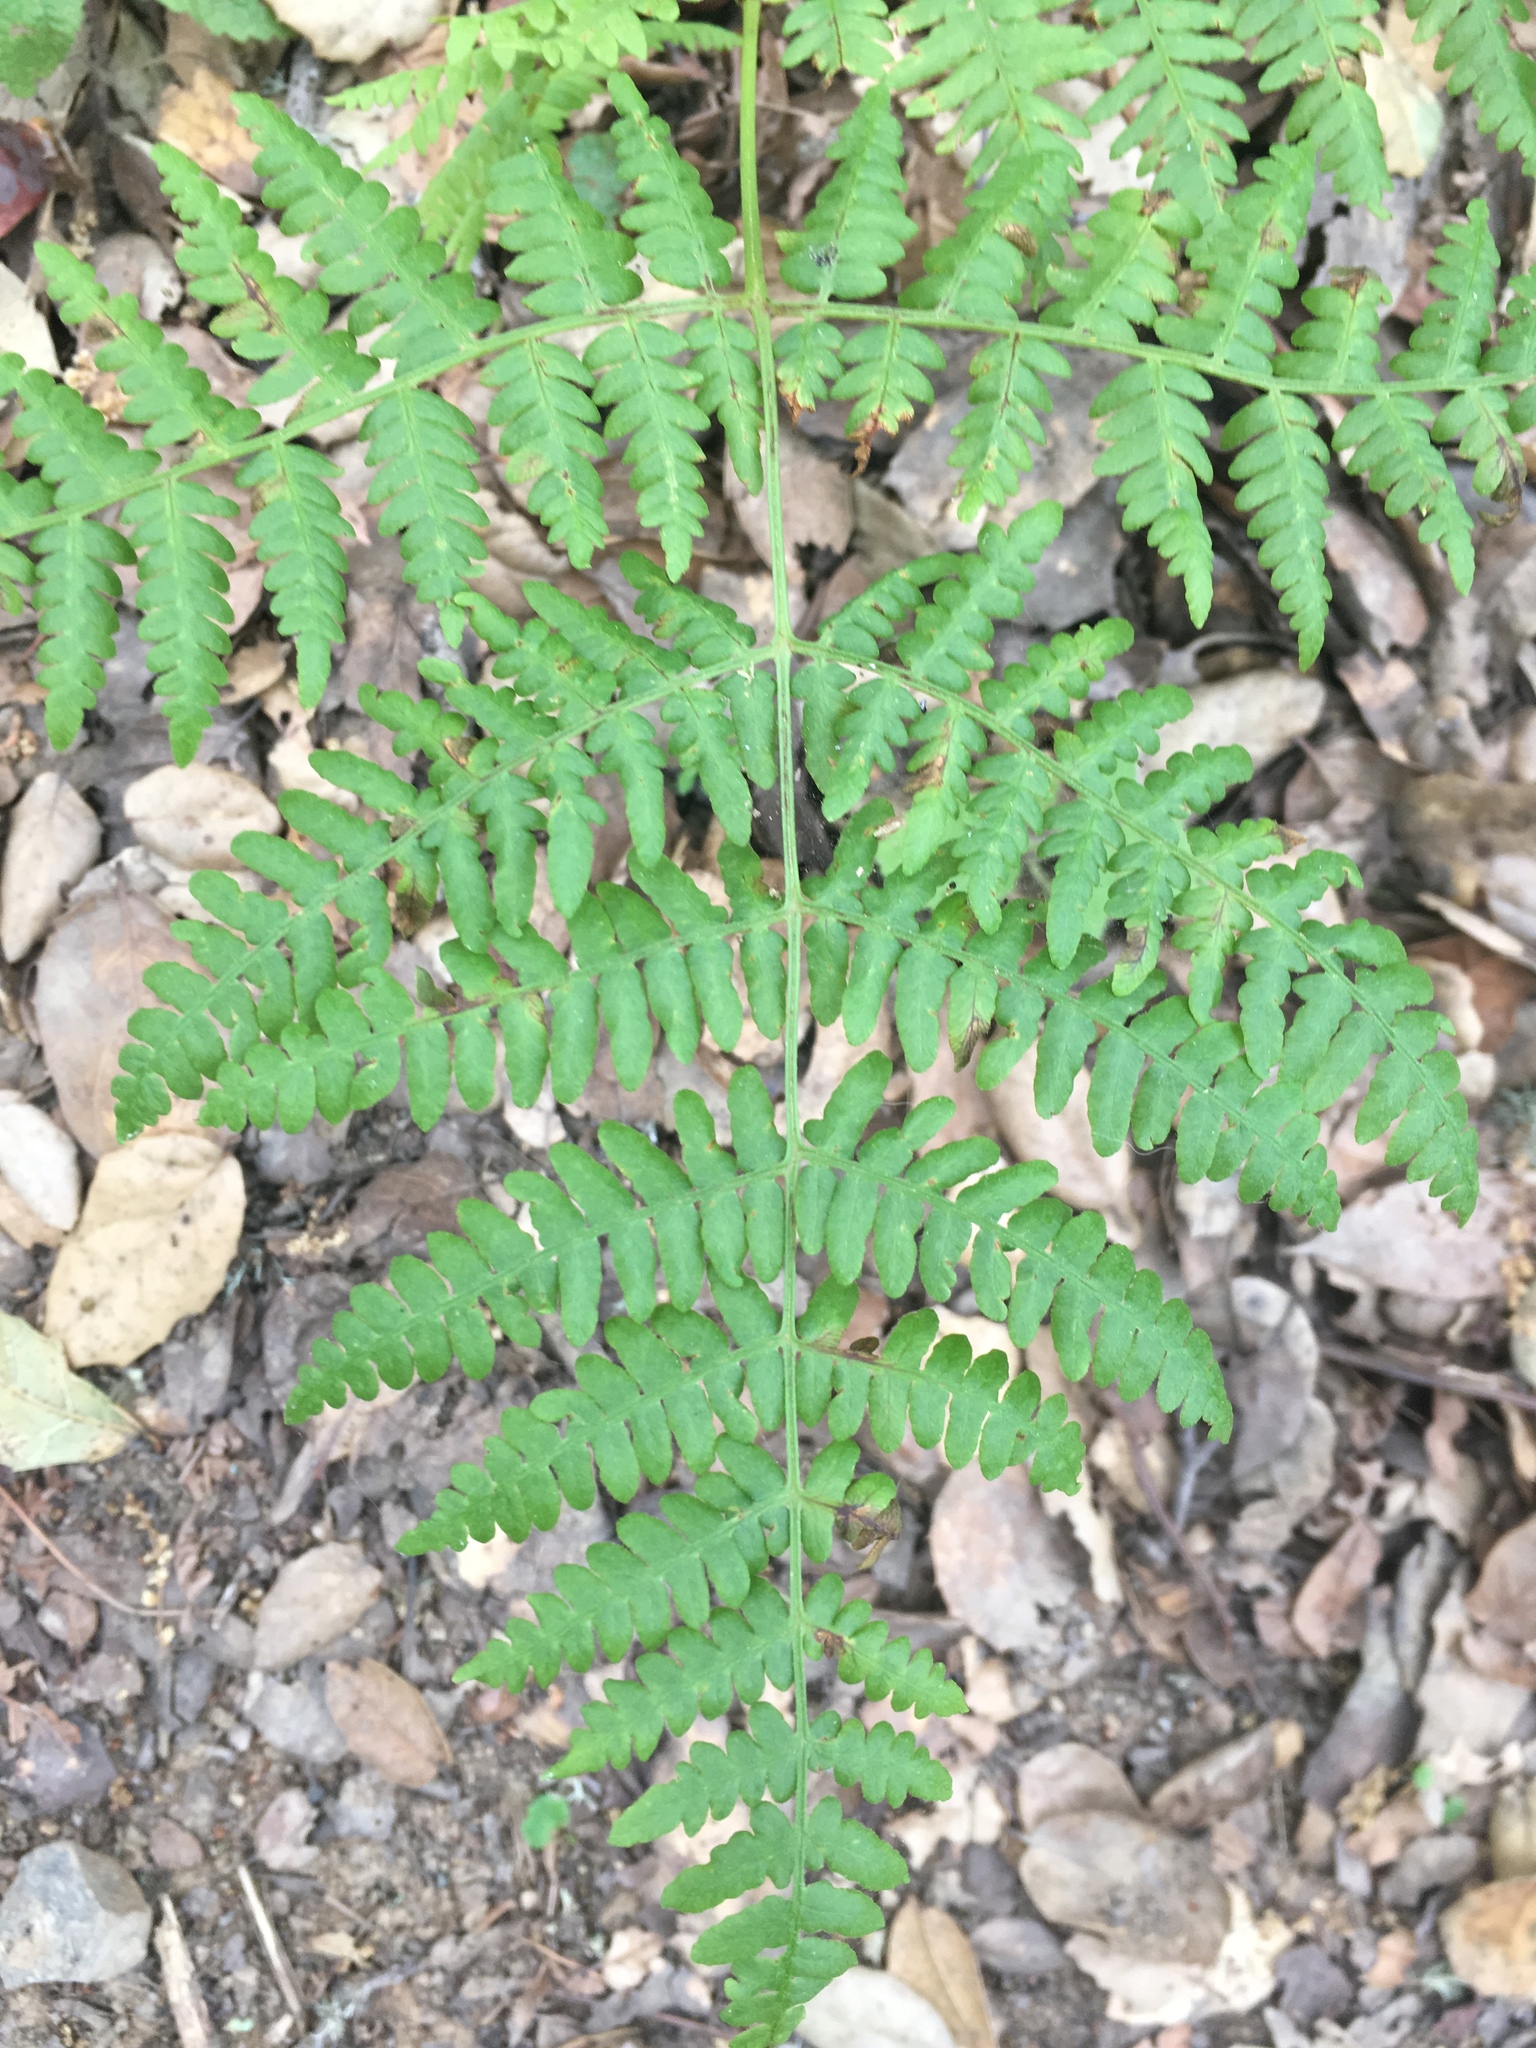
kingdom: Plantae
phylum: Tracheophyta
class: Polypodiopsida
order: Polypodiales
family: Dennstaedtiaceae
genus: Pteridium
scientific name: Pteridium aquilinum
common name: Bracken
